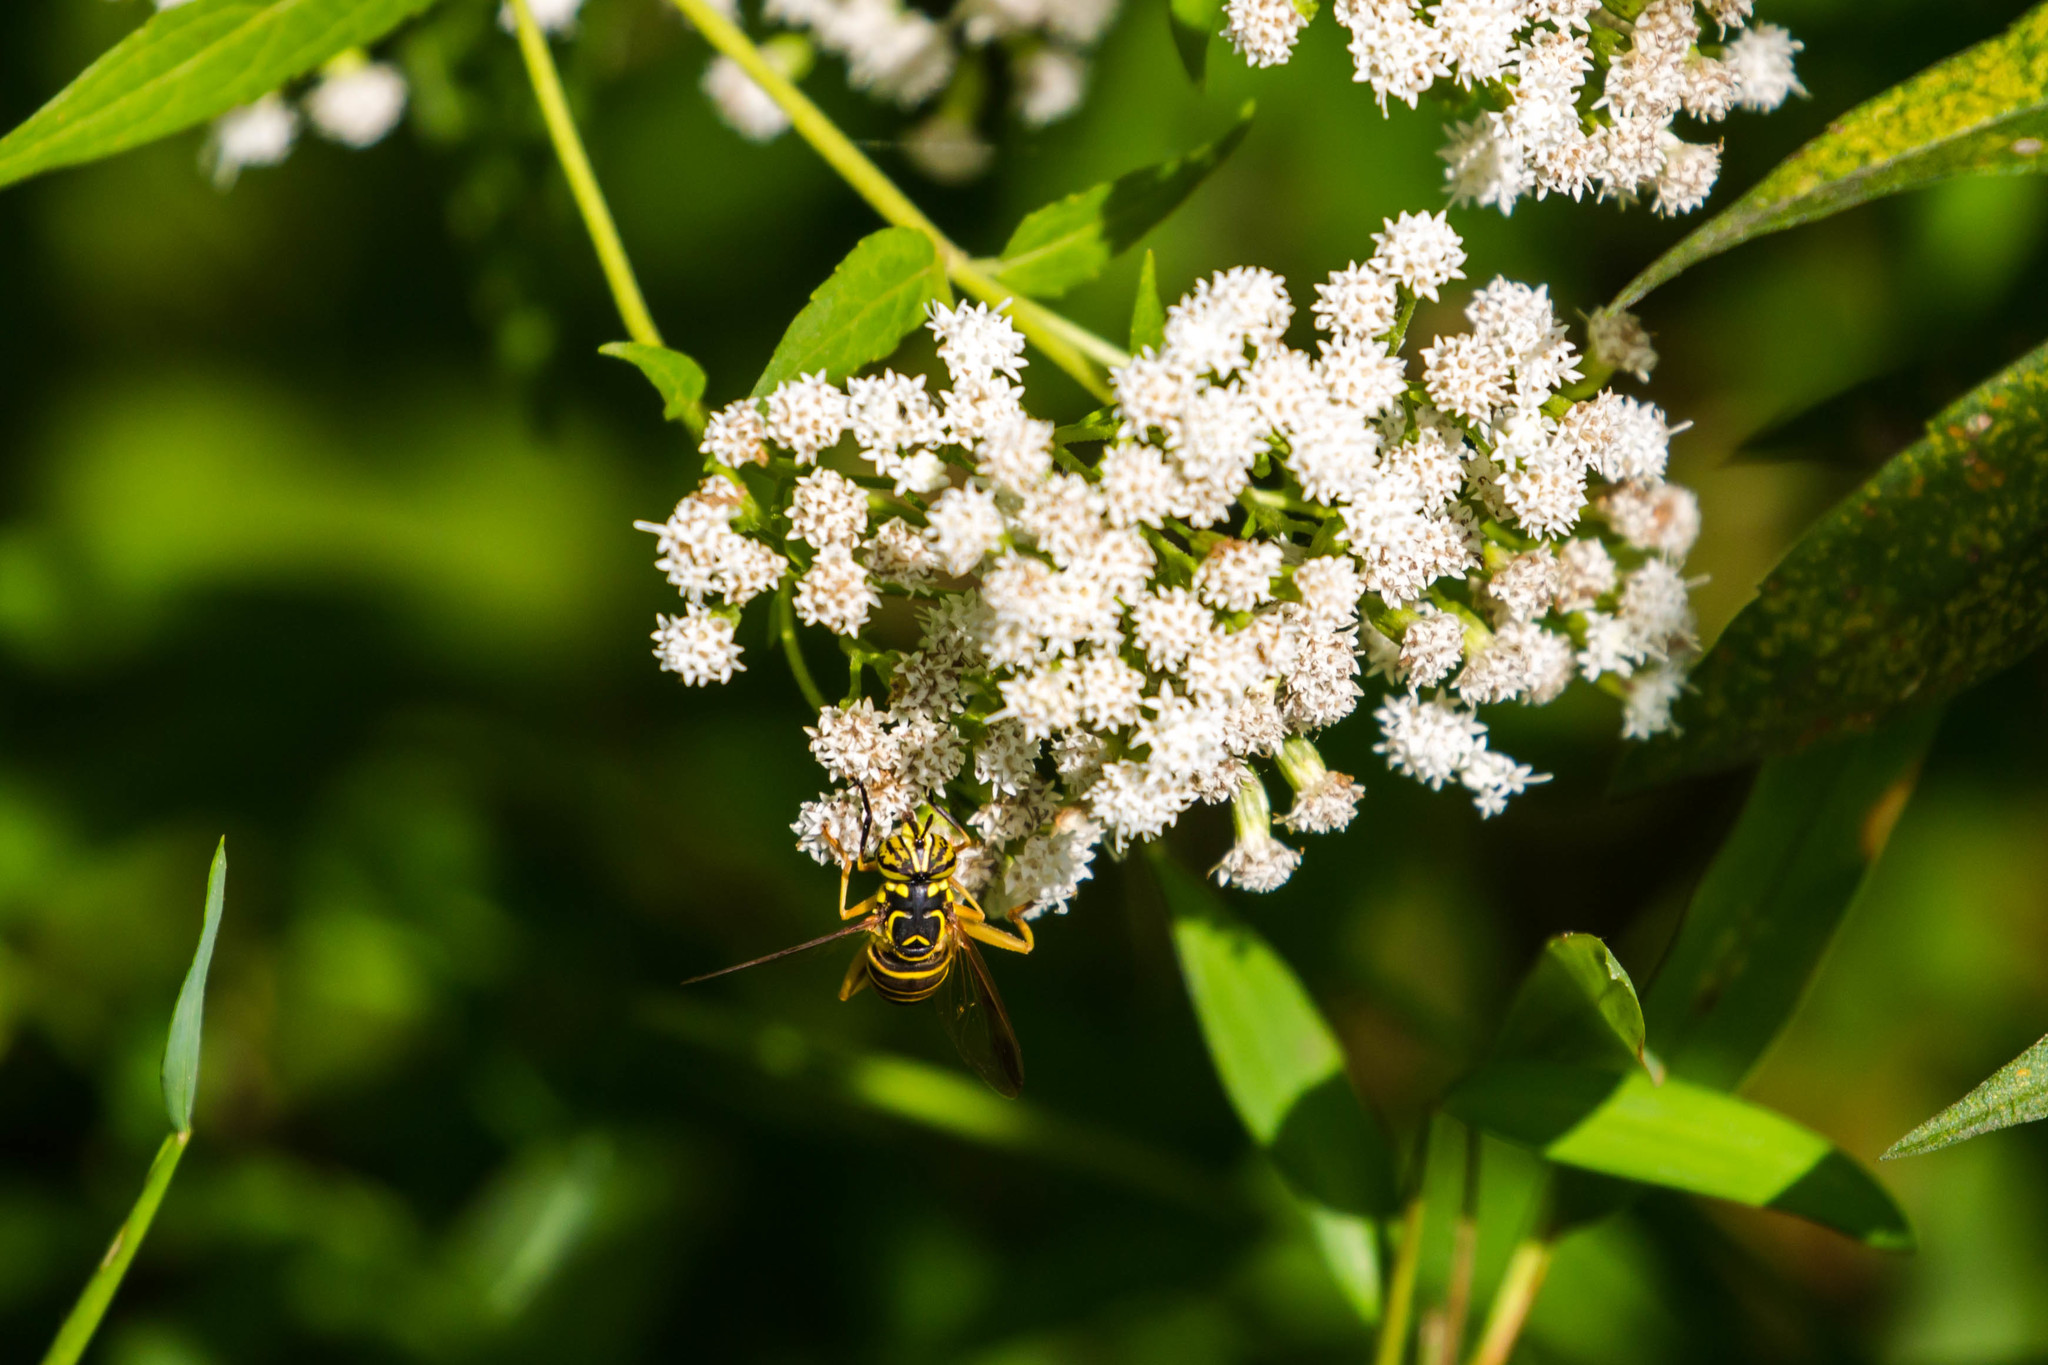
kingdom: Animalia
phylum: Arthropoda
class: Insecta
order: Diptera
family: Syrphidae
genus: Spilomyia
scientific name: Spilomyia longicornis
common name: Eastern hornet fly
